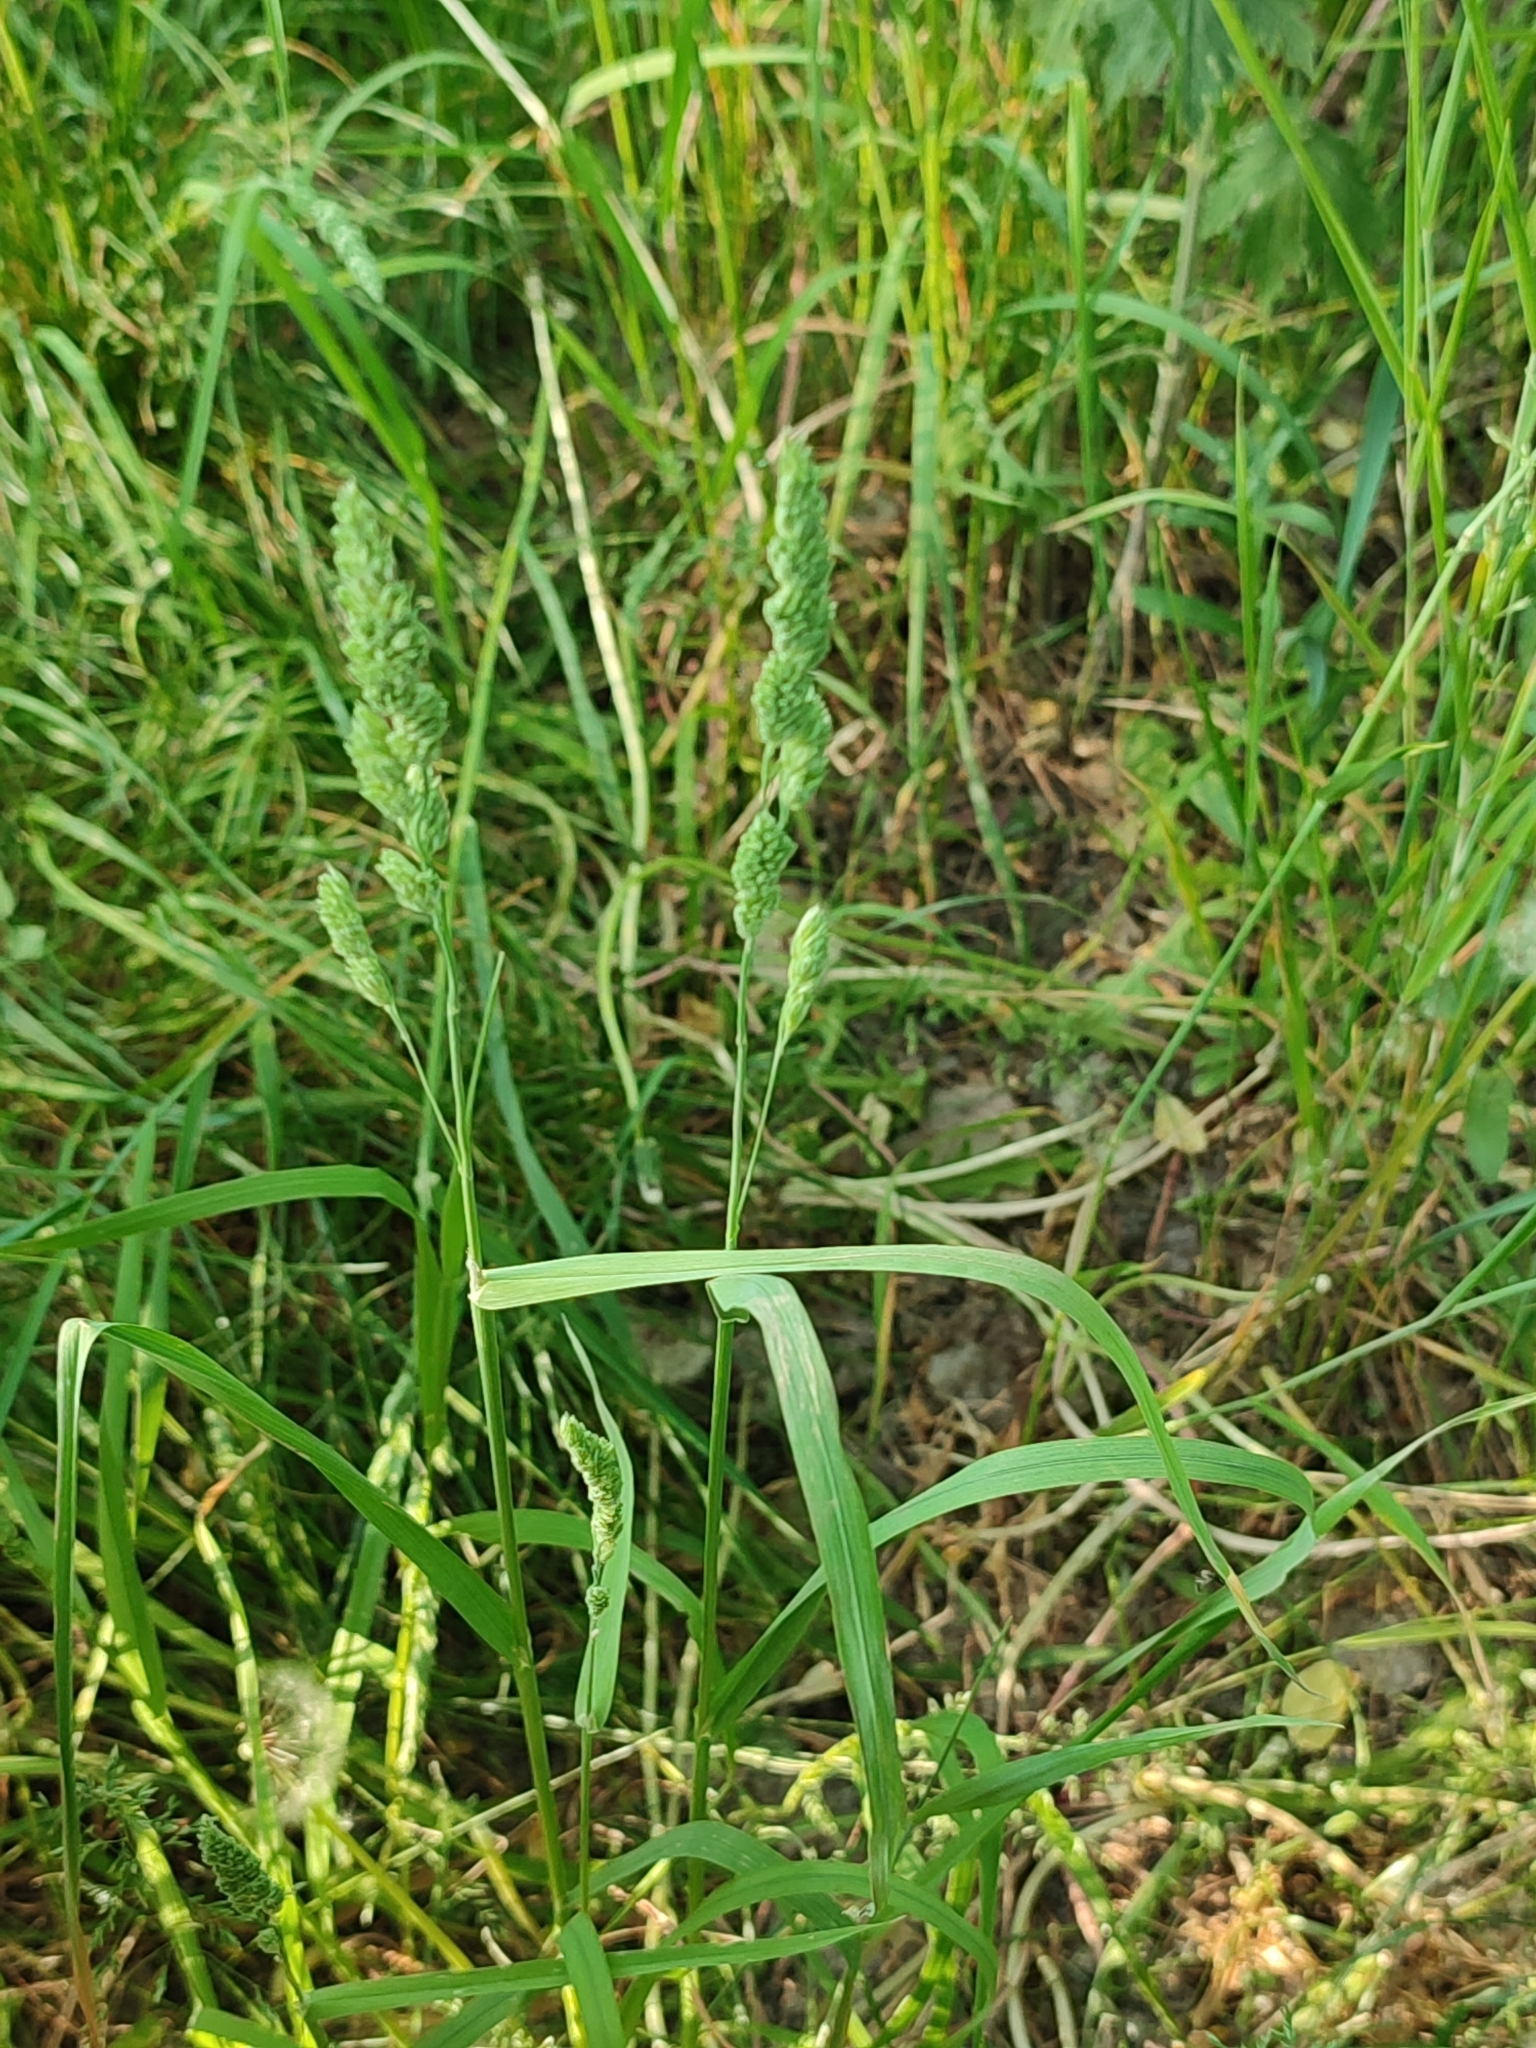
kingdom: Plantae
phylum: Tracheophyta
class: Liliopsida
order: Poales
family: Poaceae
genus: Dactylis
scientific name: Dactylis glomerata
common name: Orchardgrass
